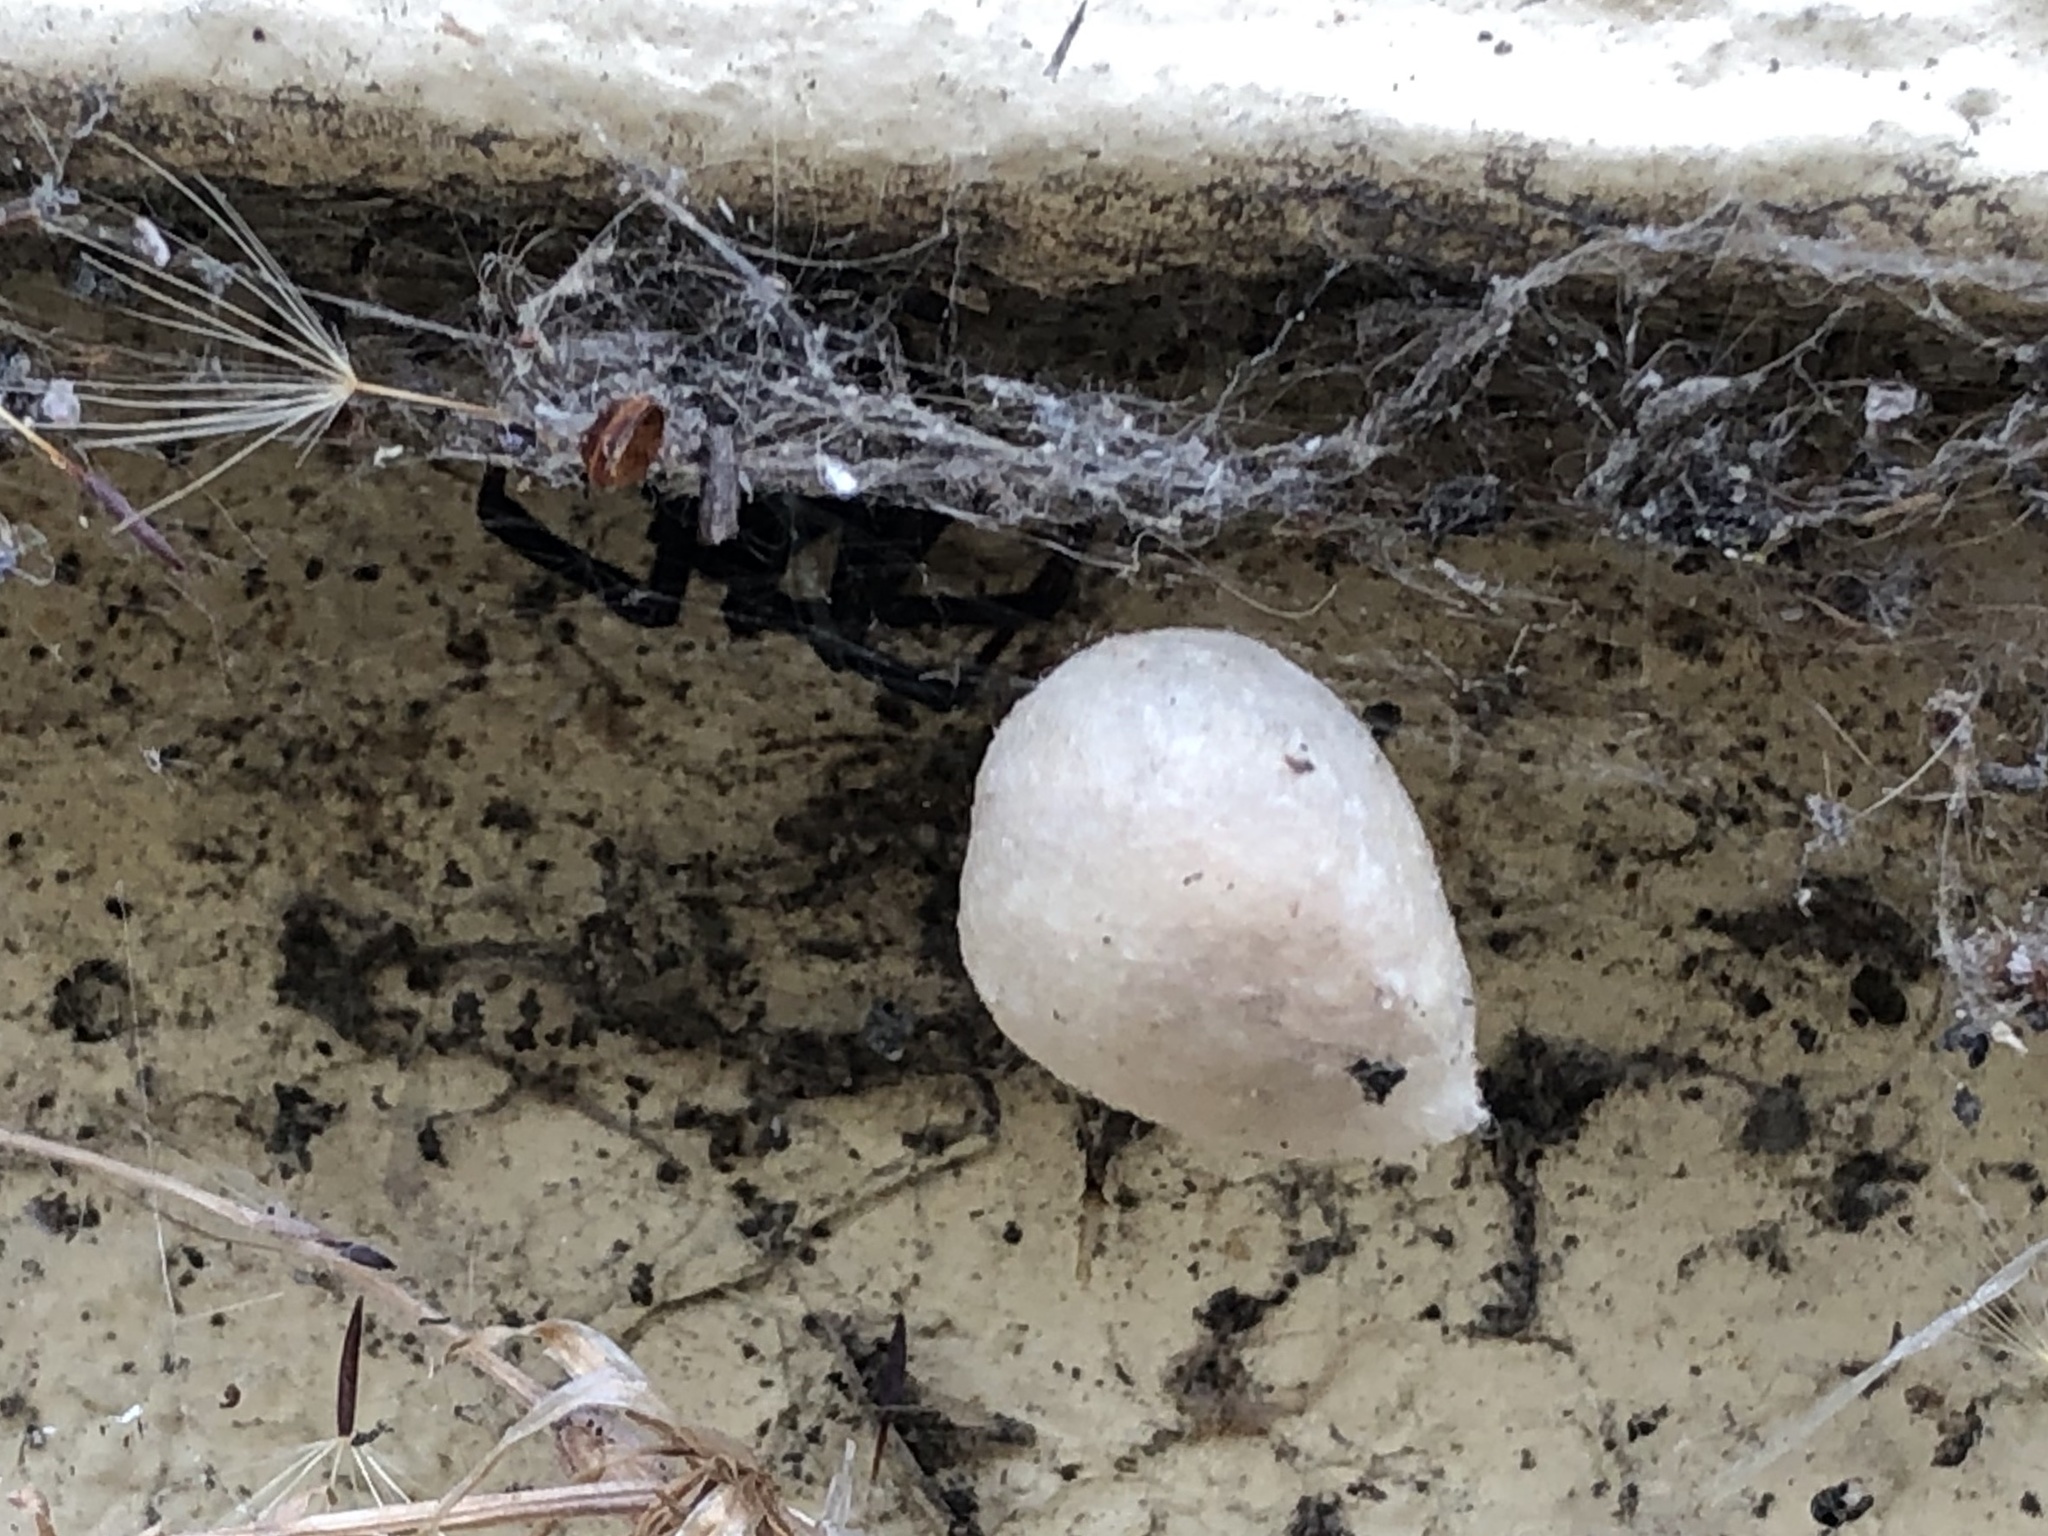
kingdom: Animalia
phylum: Arthropoda
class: Arachnida
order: Araneae
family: Theridiidae
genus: Latrodectus
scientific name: Latrodectus hesperus
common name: Western black widow
